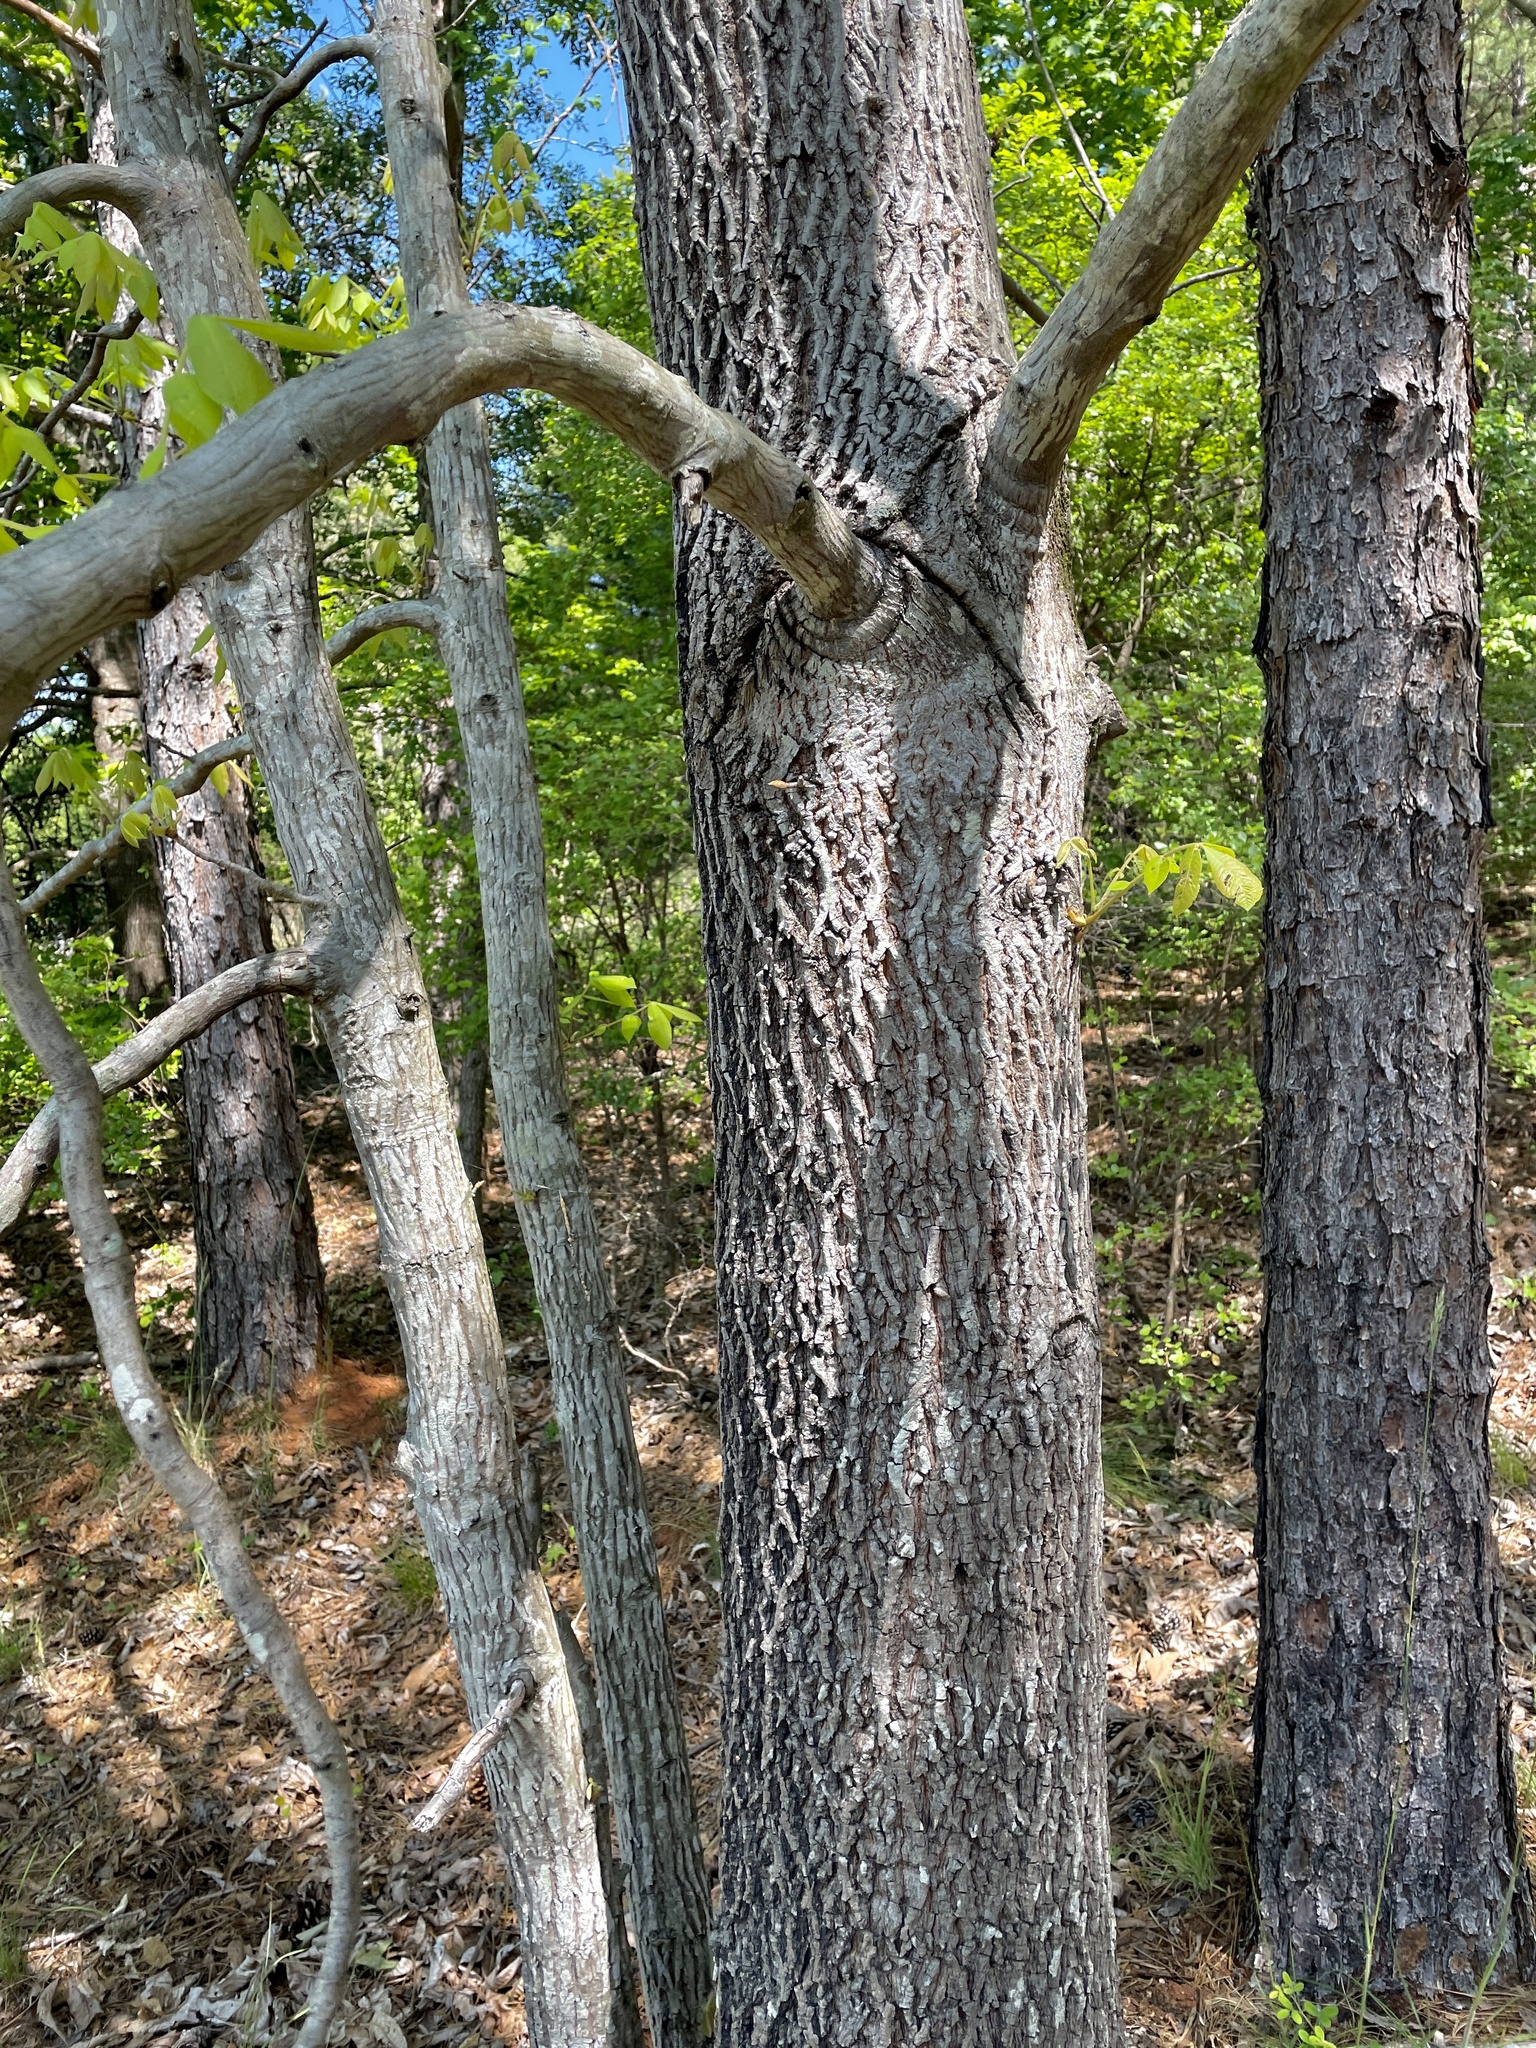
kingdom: Animalia
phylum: Arthropoda
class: Insecta
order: Hemiptera
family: Phylloxeridae
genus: Phylloxera
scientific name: Phylloxera caryaefoliae
